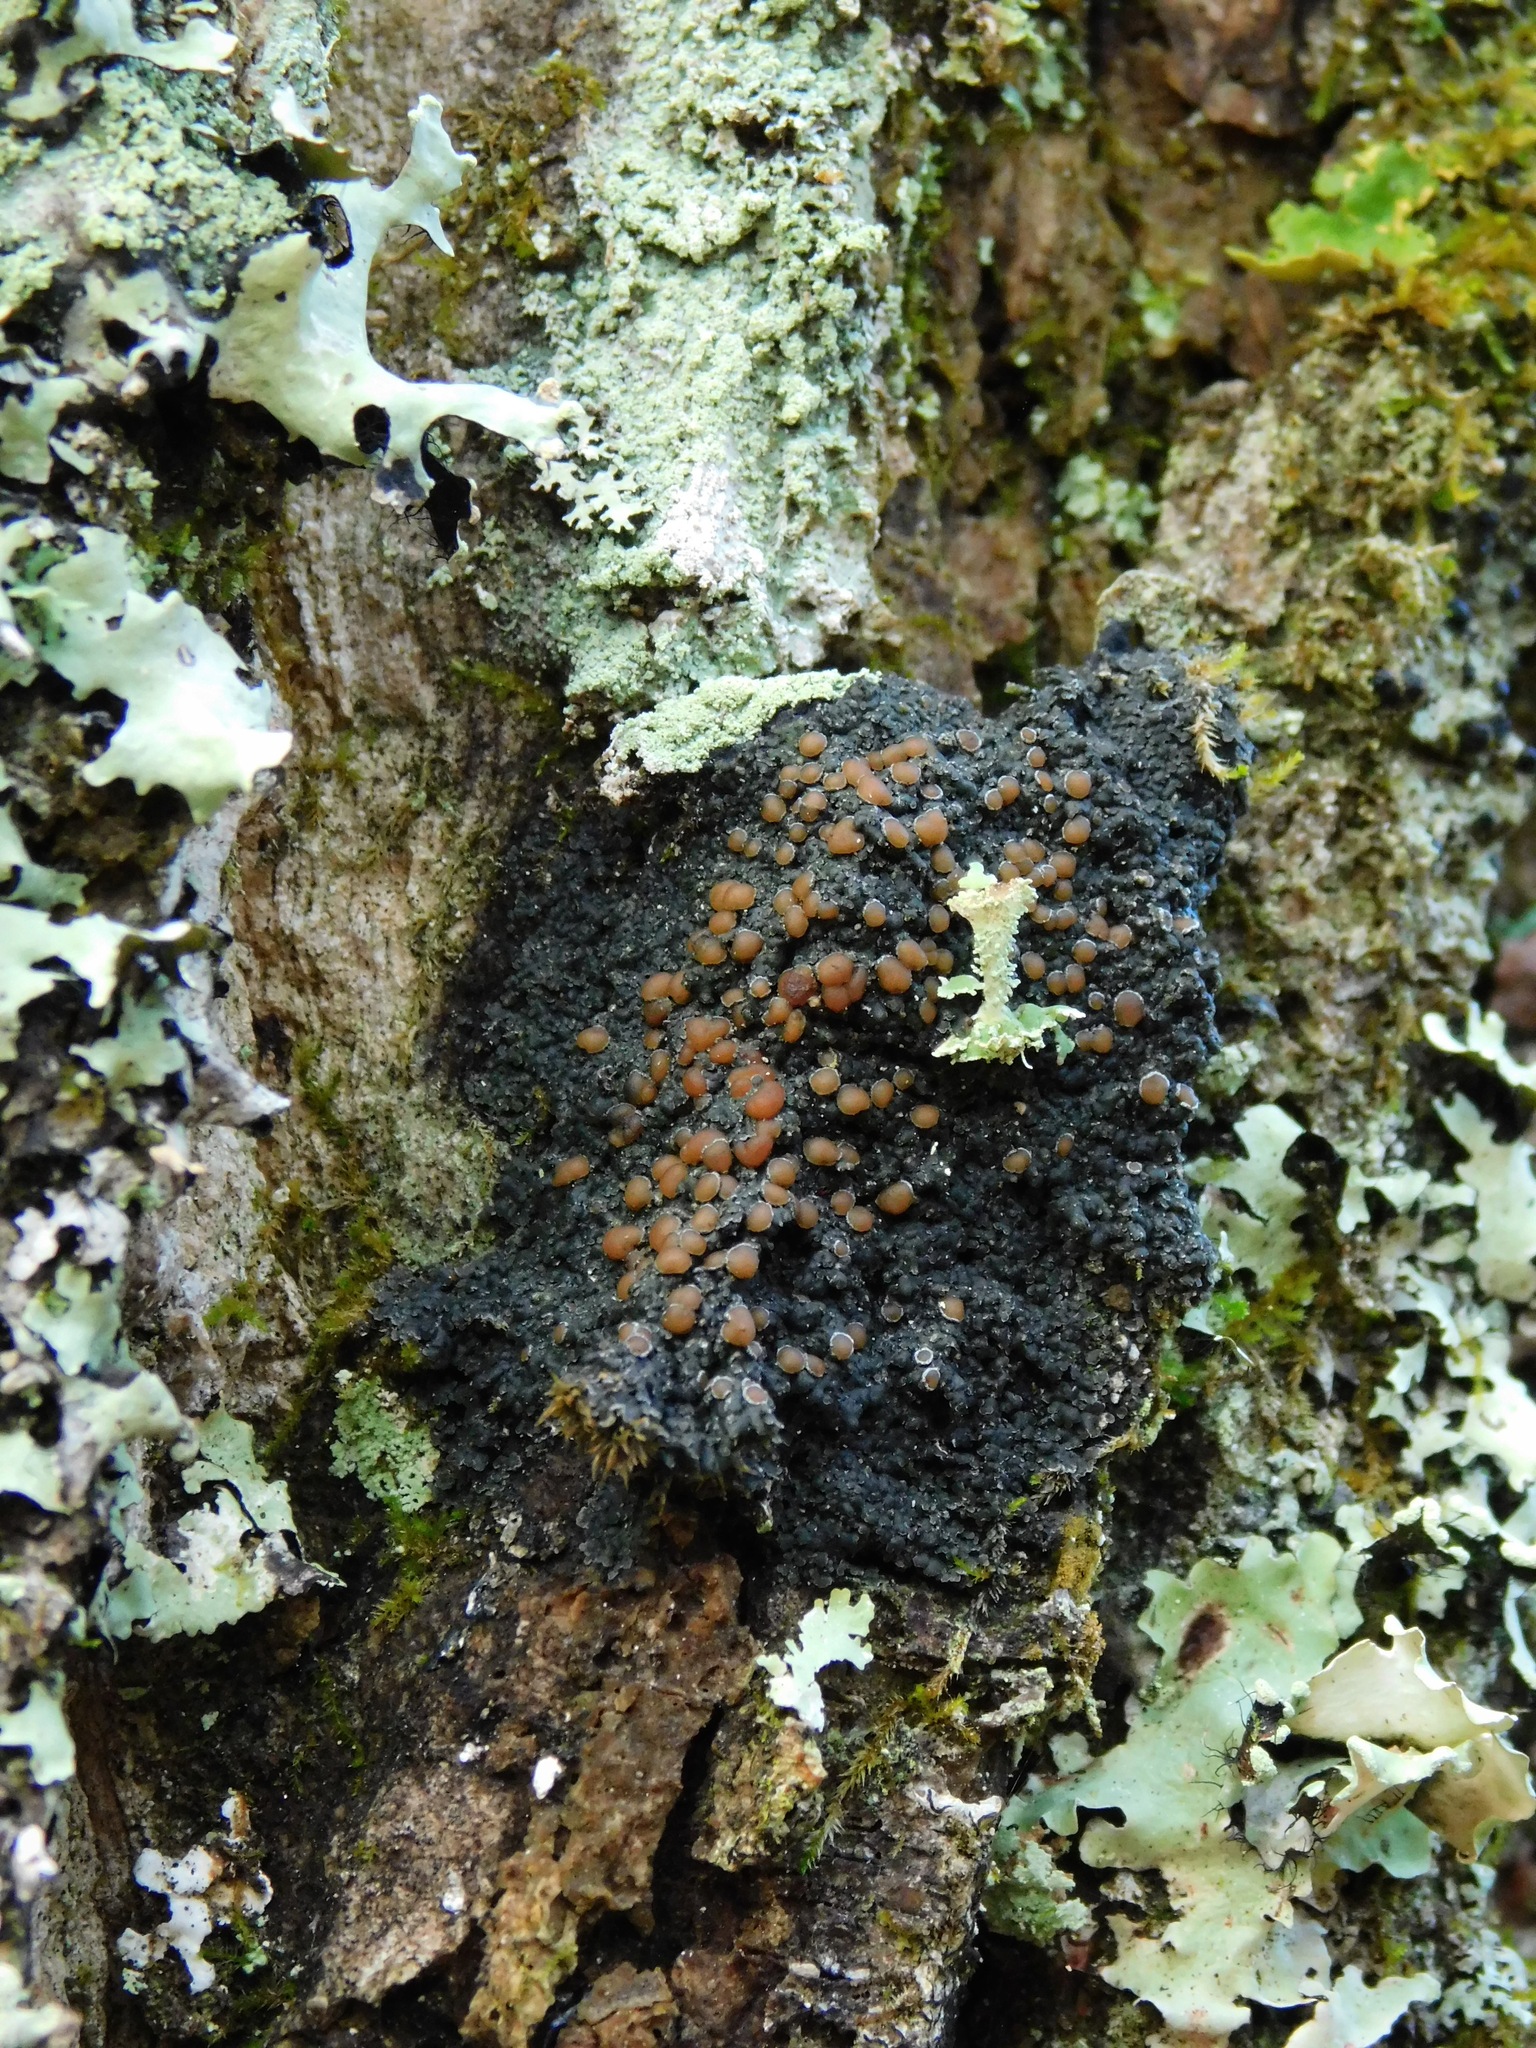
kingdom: Fungi
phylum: Ascomycota
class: Lecanoromycetes
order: Peltigerales
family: Pannariaceae
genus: Fuscopannaria
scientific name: Fuscopannaria leucosticta
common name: Rimmed shingle lichen
